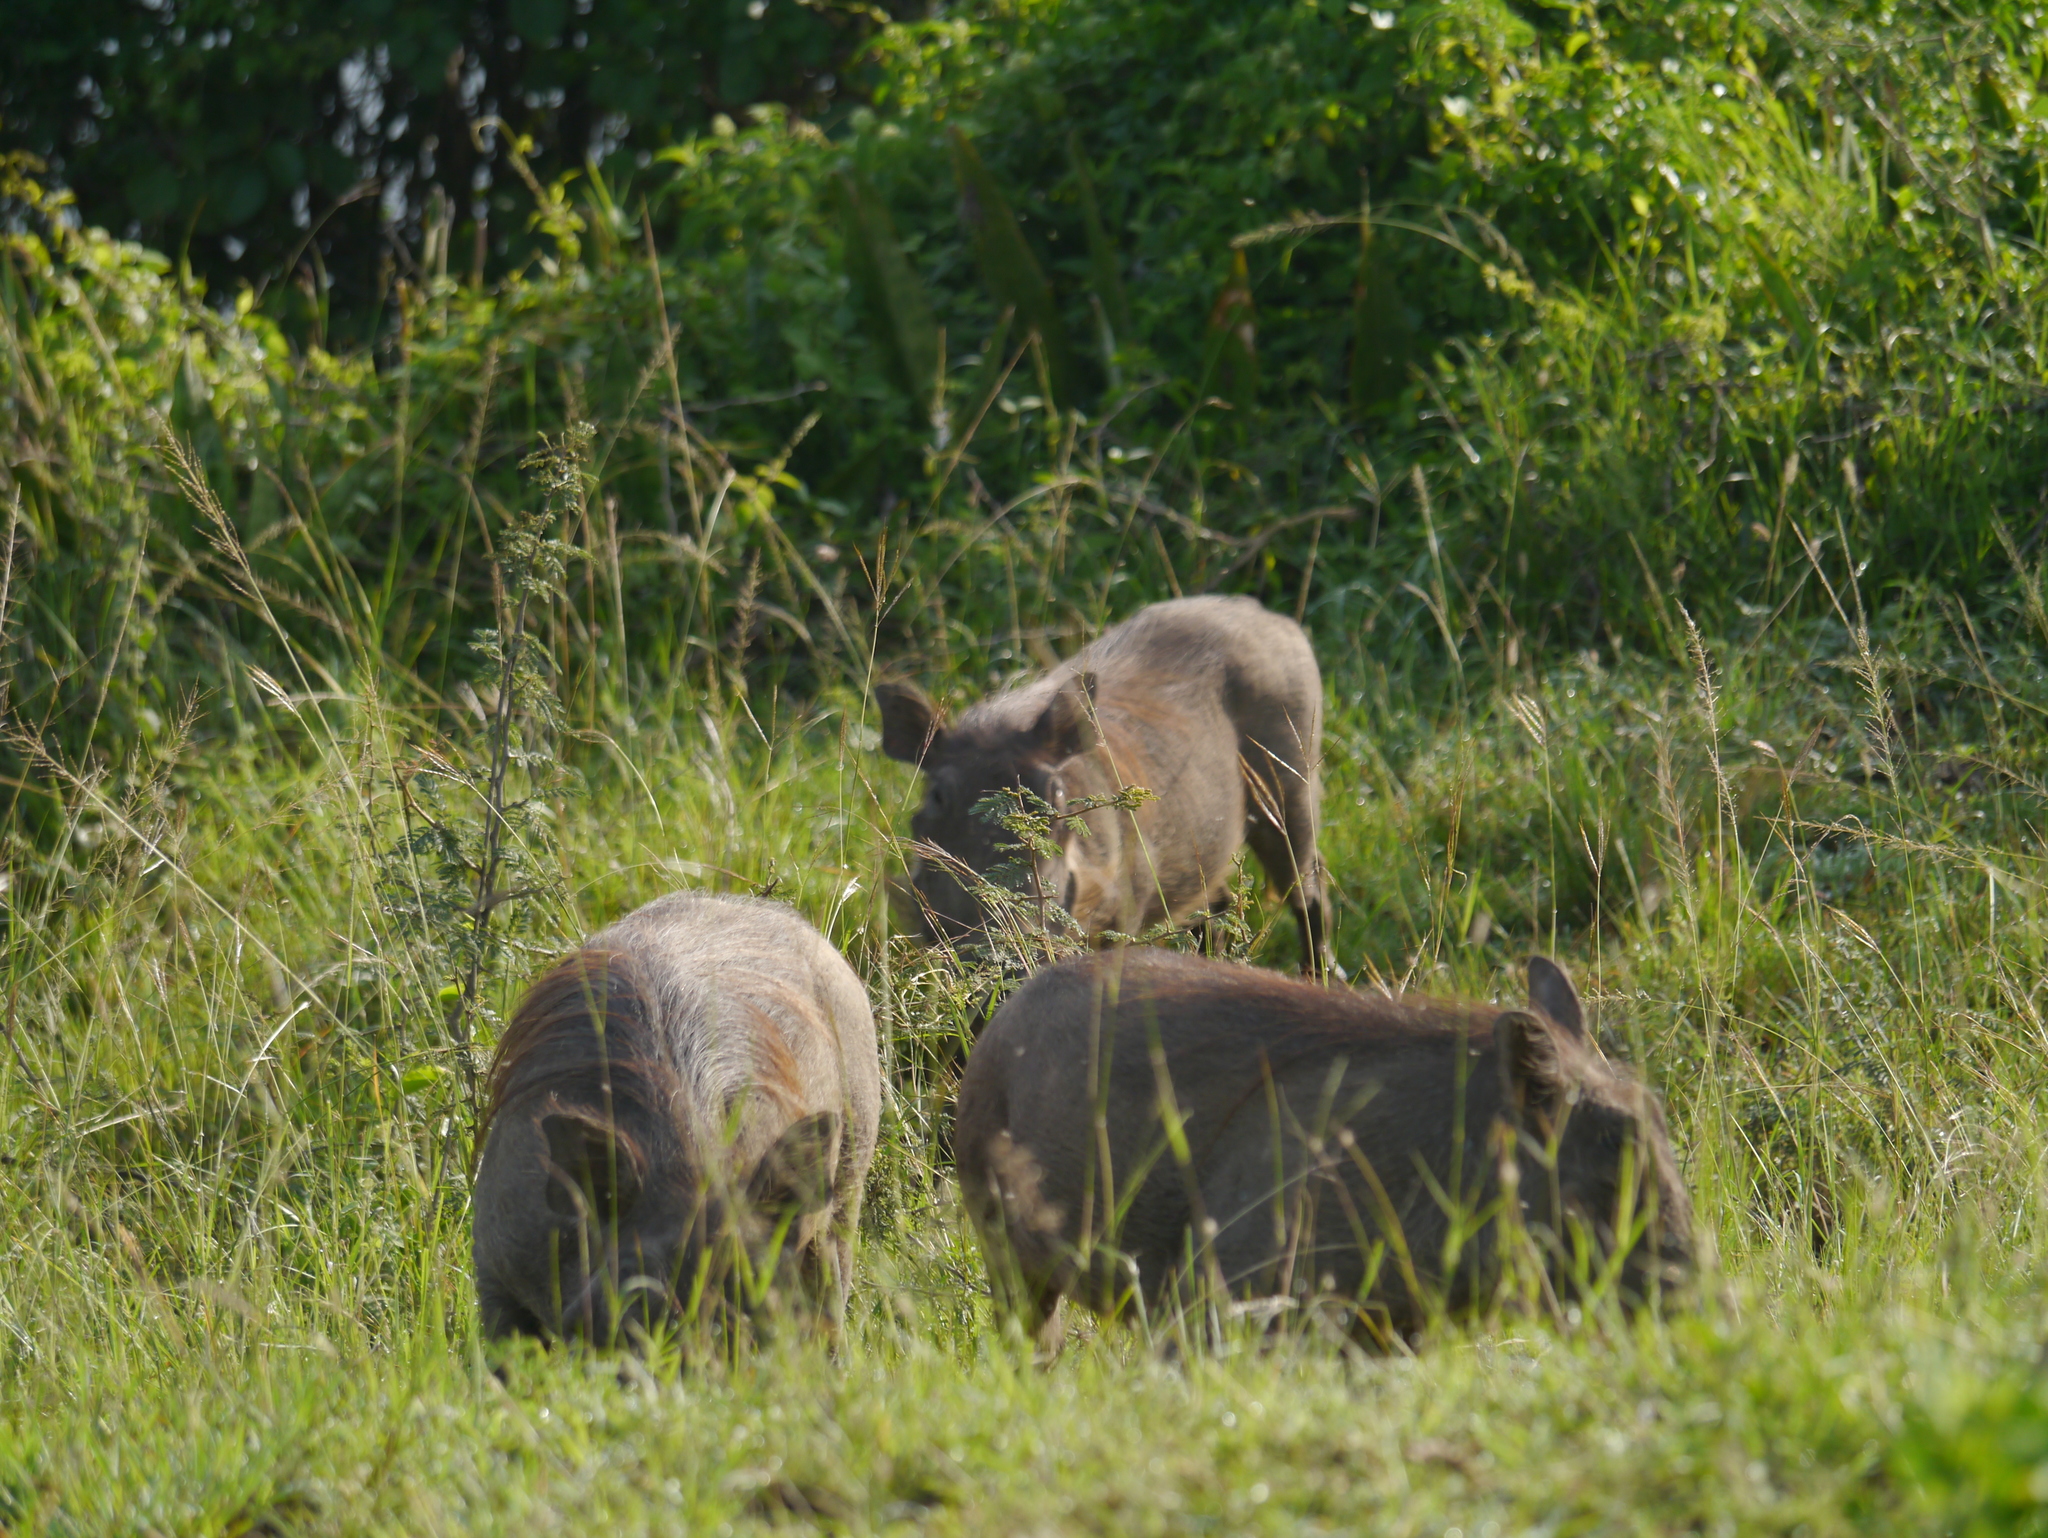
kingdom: Animalia
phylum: Chordata
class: Mammalia
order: Artiodactyla
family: Suidae
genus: Phacochoerus
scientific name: Phacochoerus africanus
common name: Common warthog
